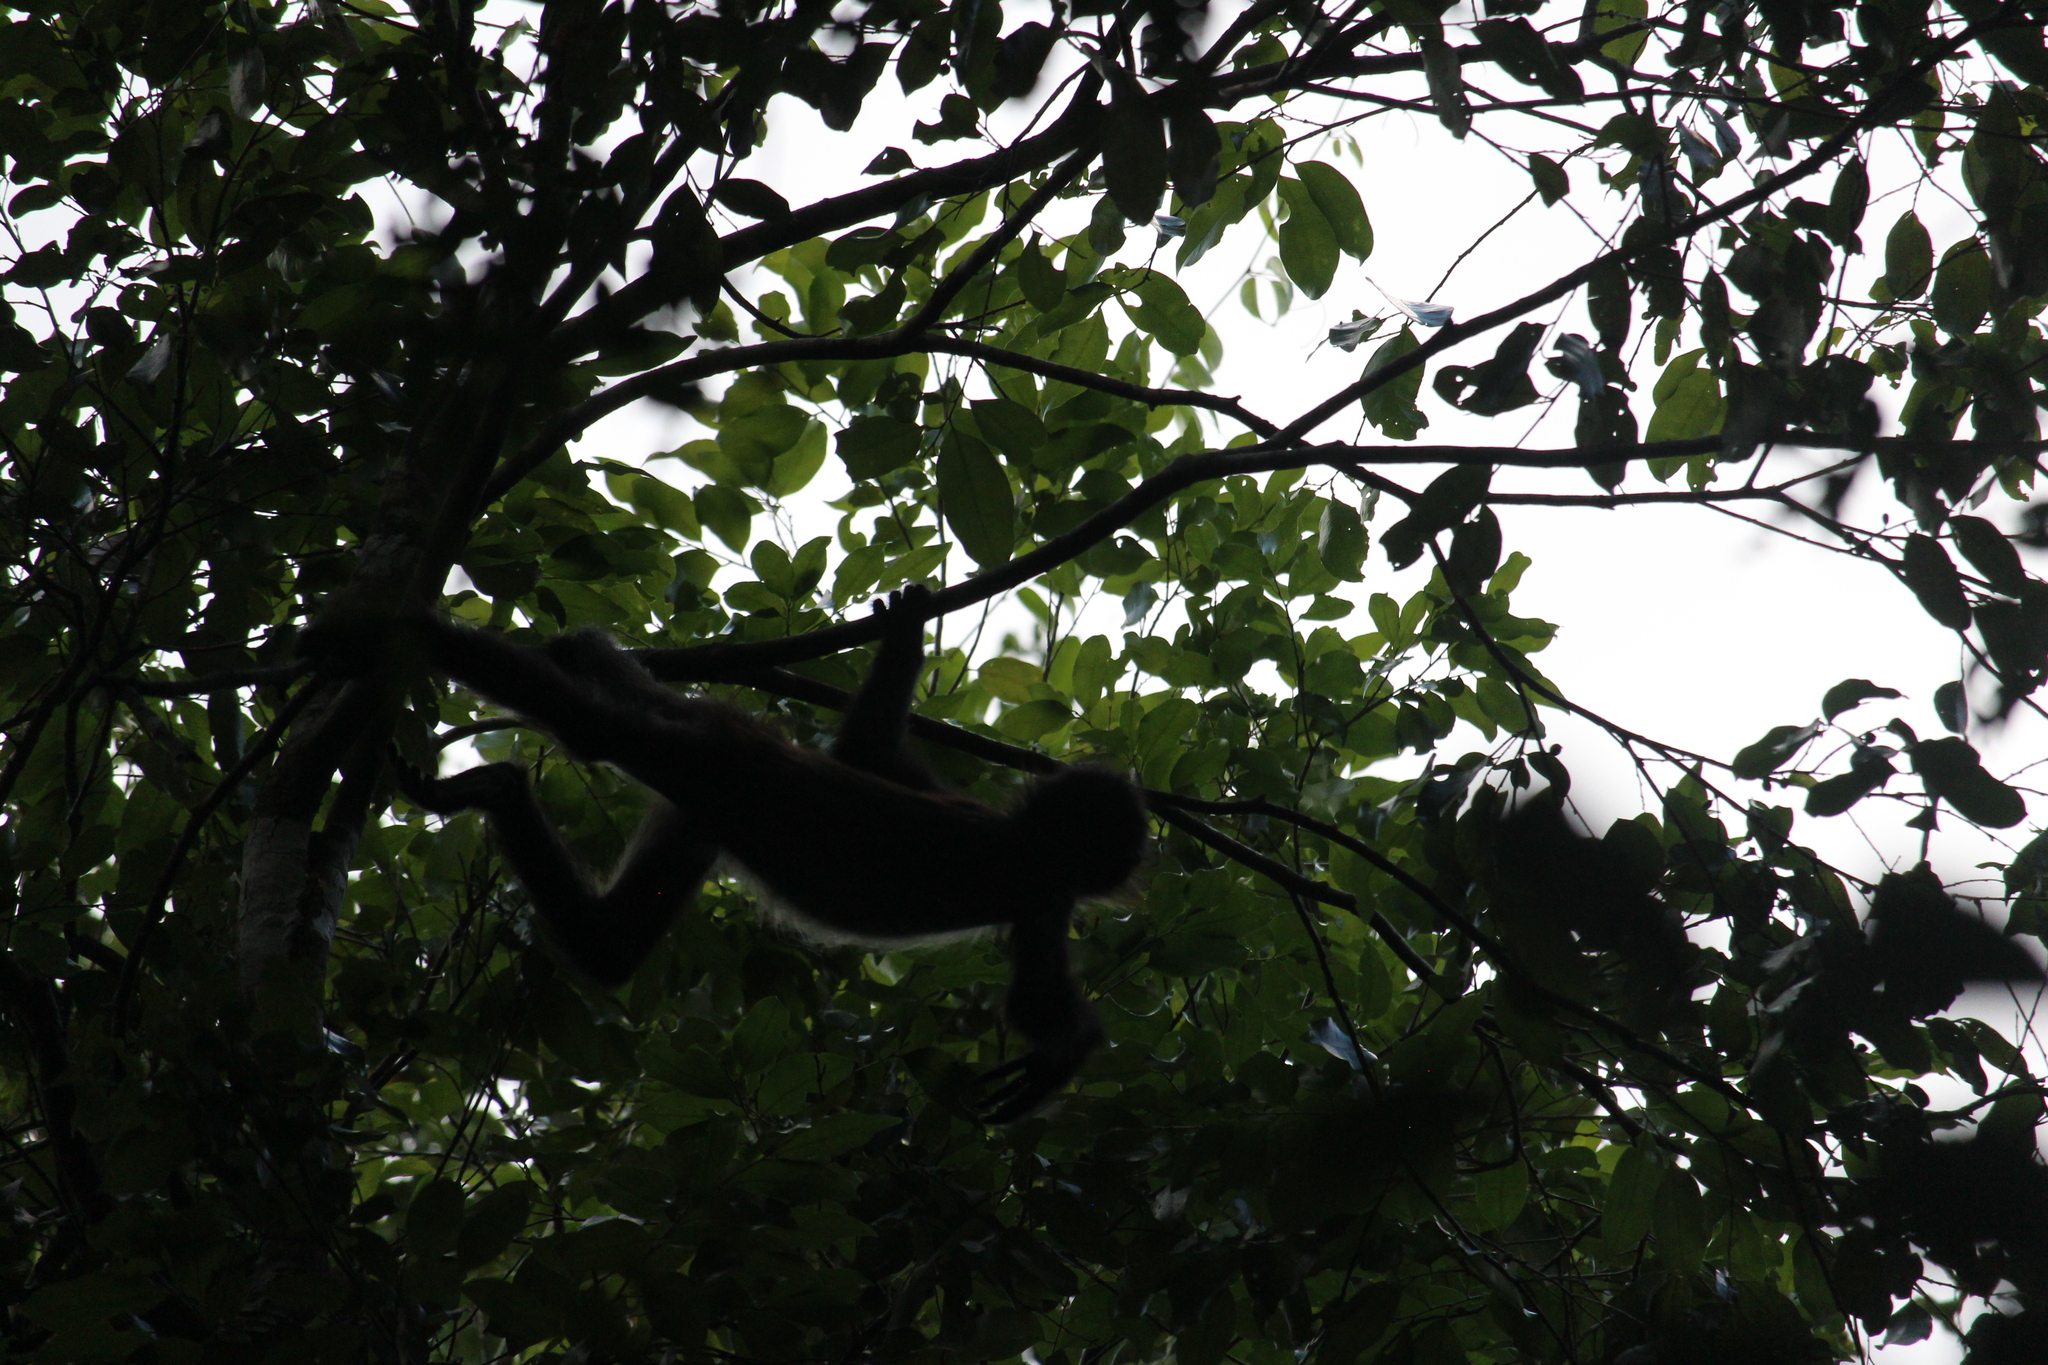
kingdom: Animalia
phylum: Chordata
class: Mammalia
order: Primates
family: Atelidae
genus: Ateles
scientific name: Ateles geoffroyi
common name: Black-handed spider monkey
